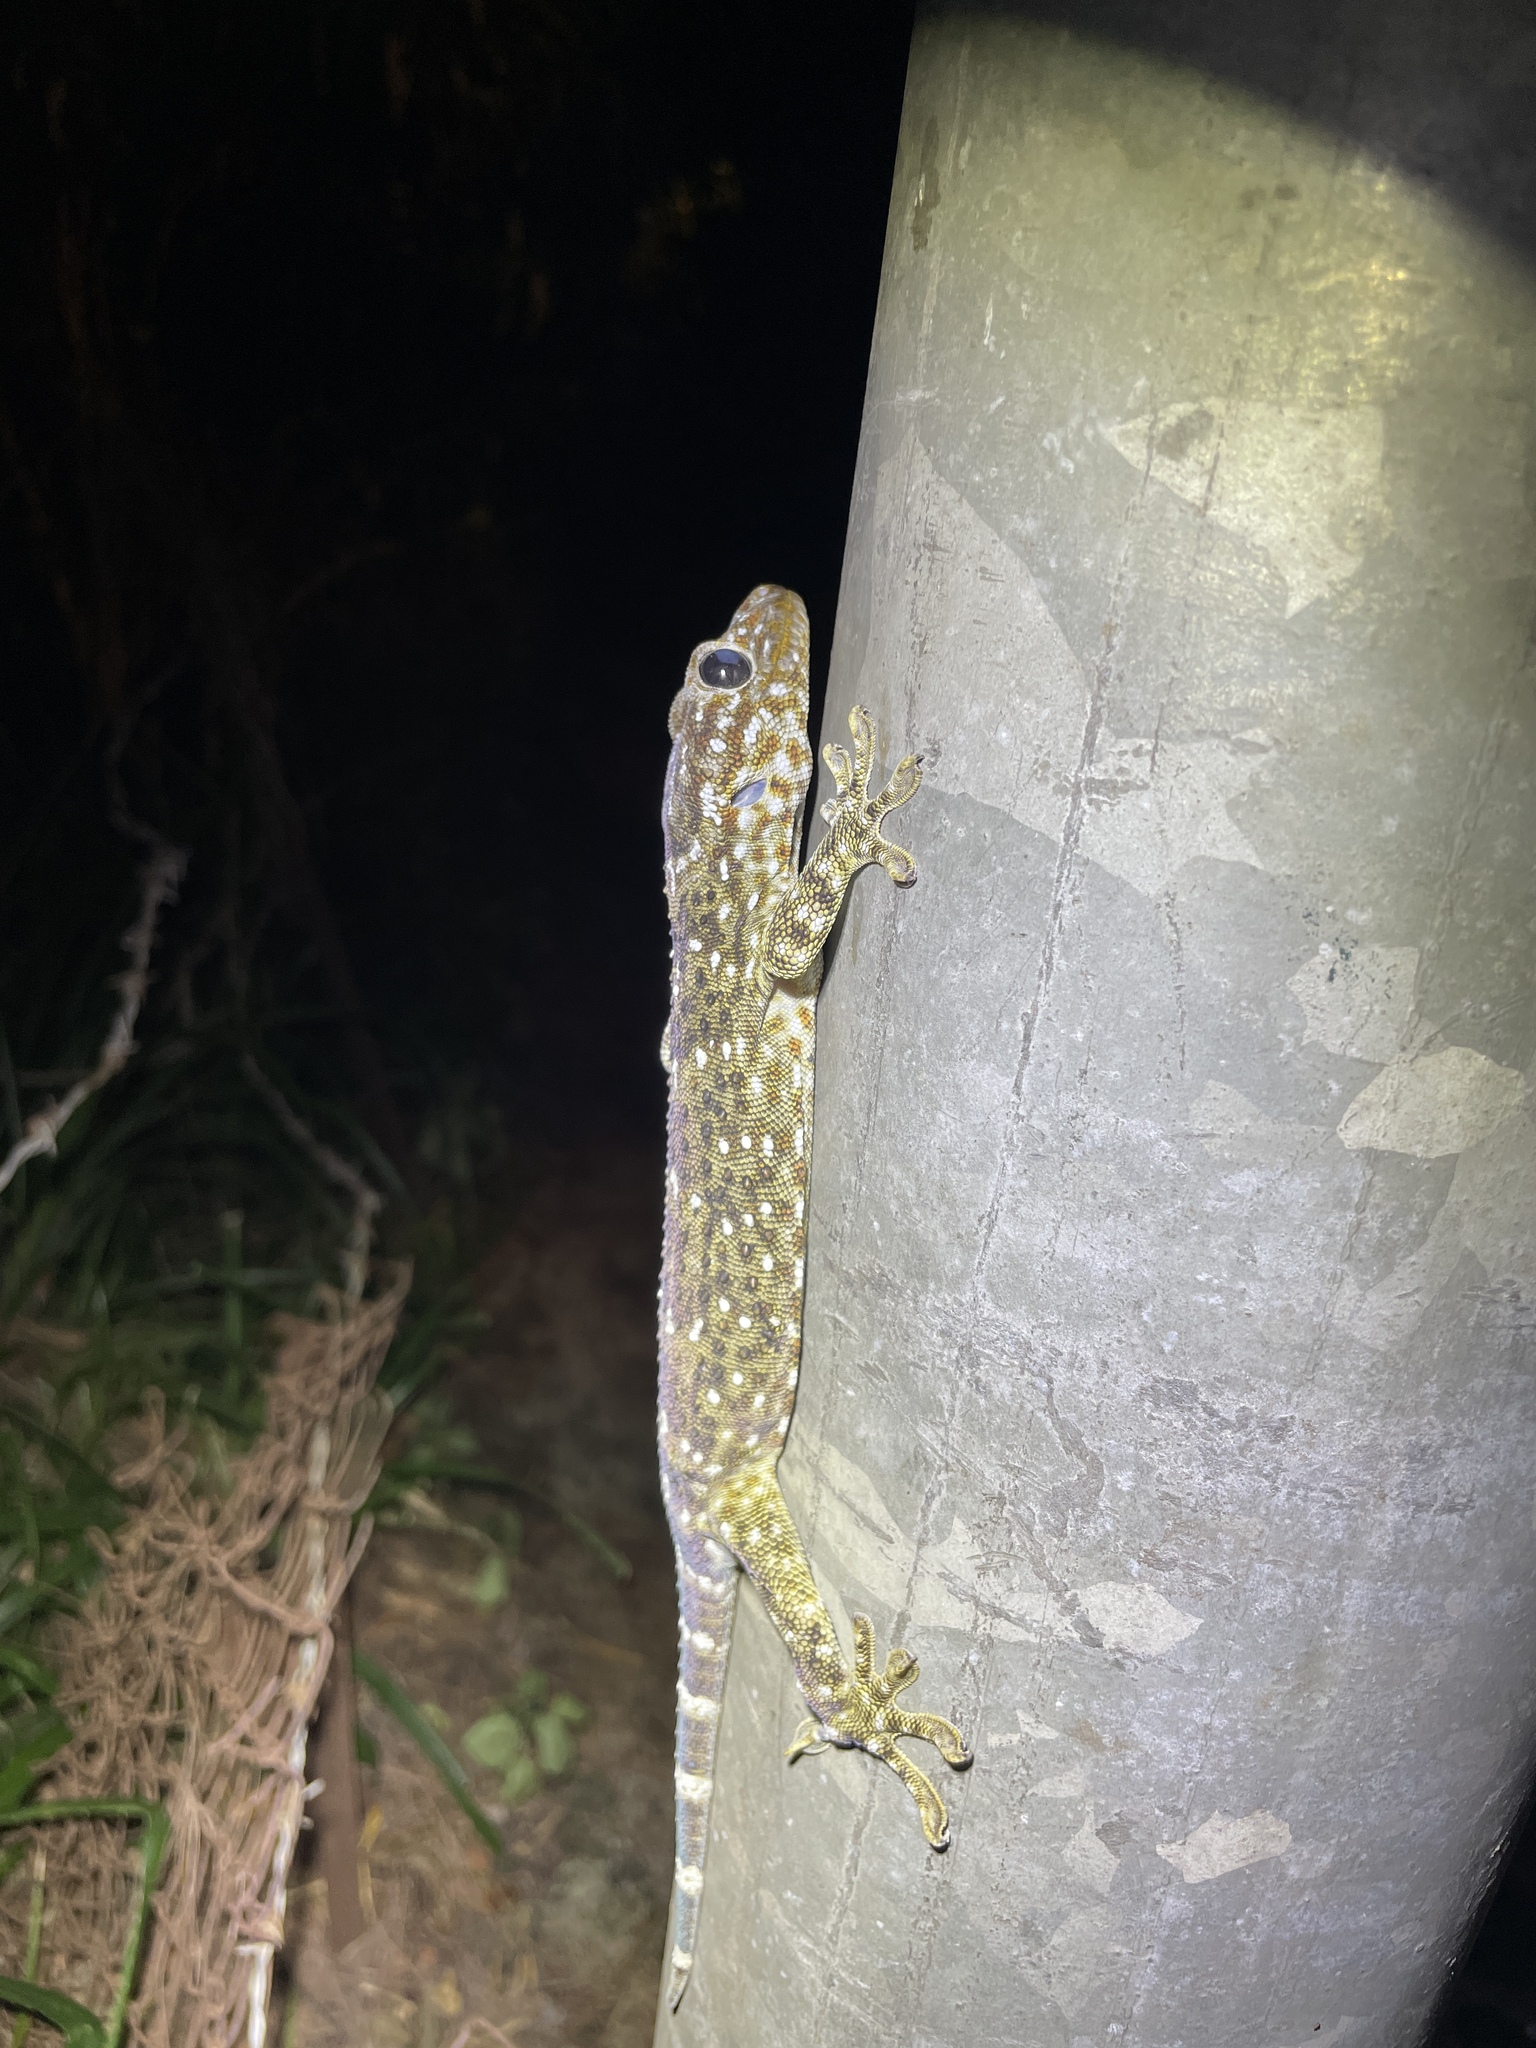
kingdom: Animalia
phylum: Chordata
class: Squamata
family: Gekkonidae
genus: Gekko
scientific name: Gekko reevesii
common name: Reeves’ tokay gecko
